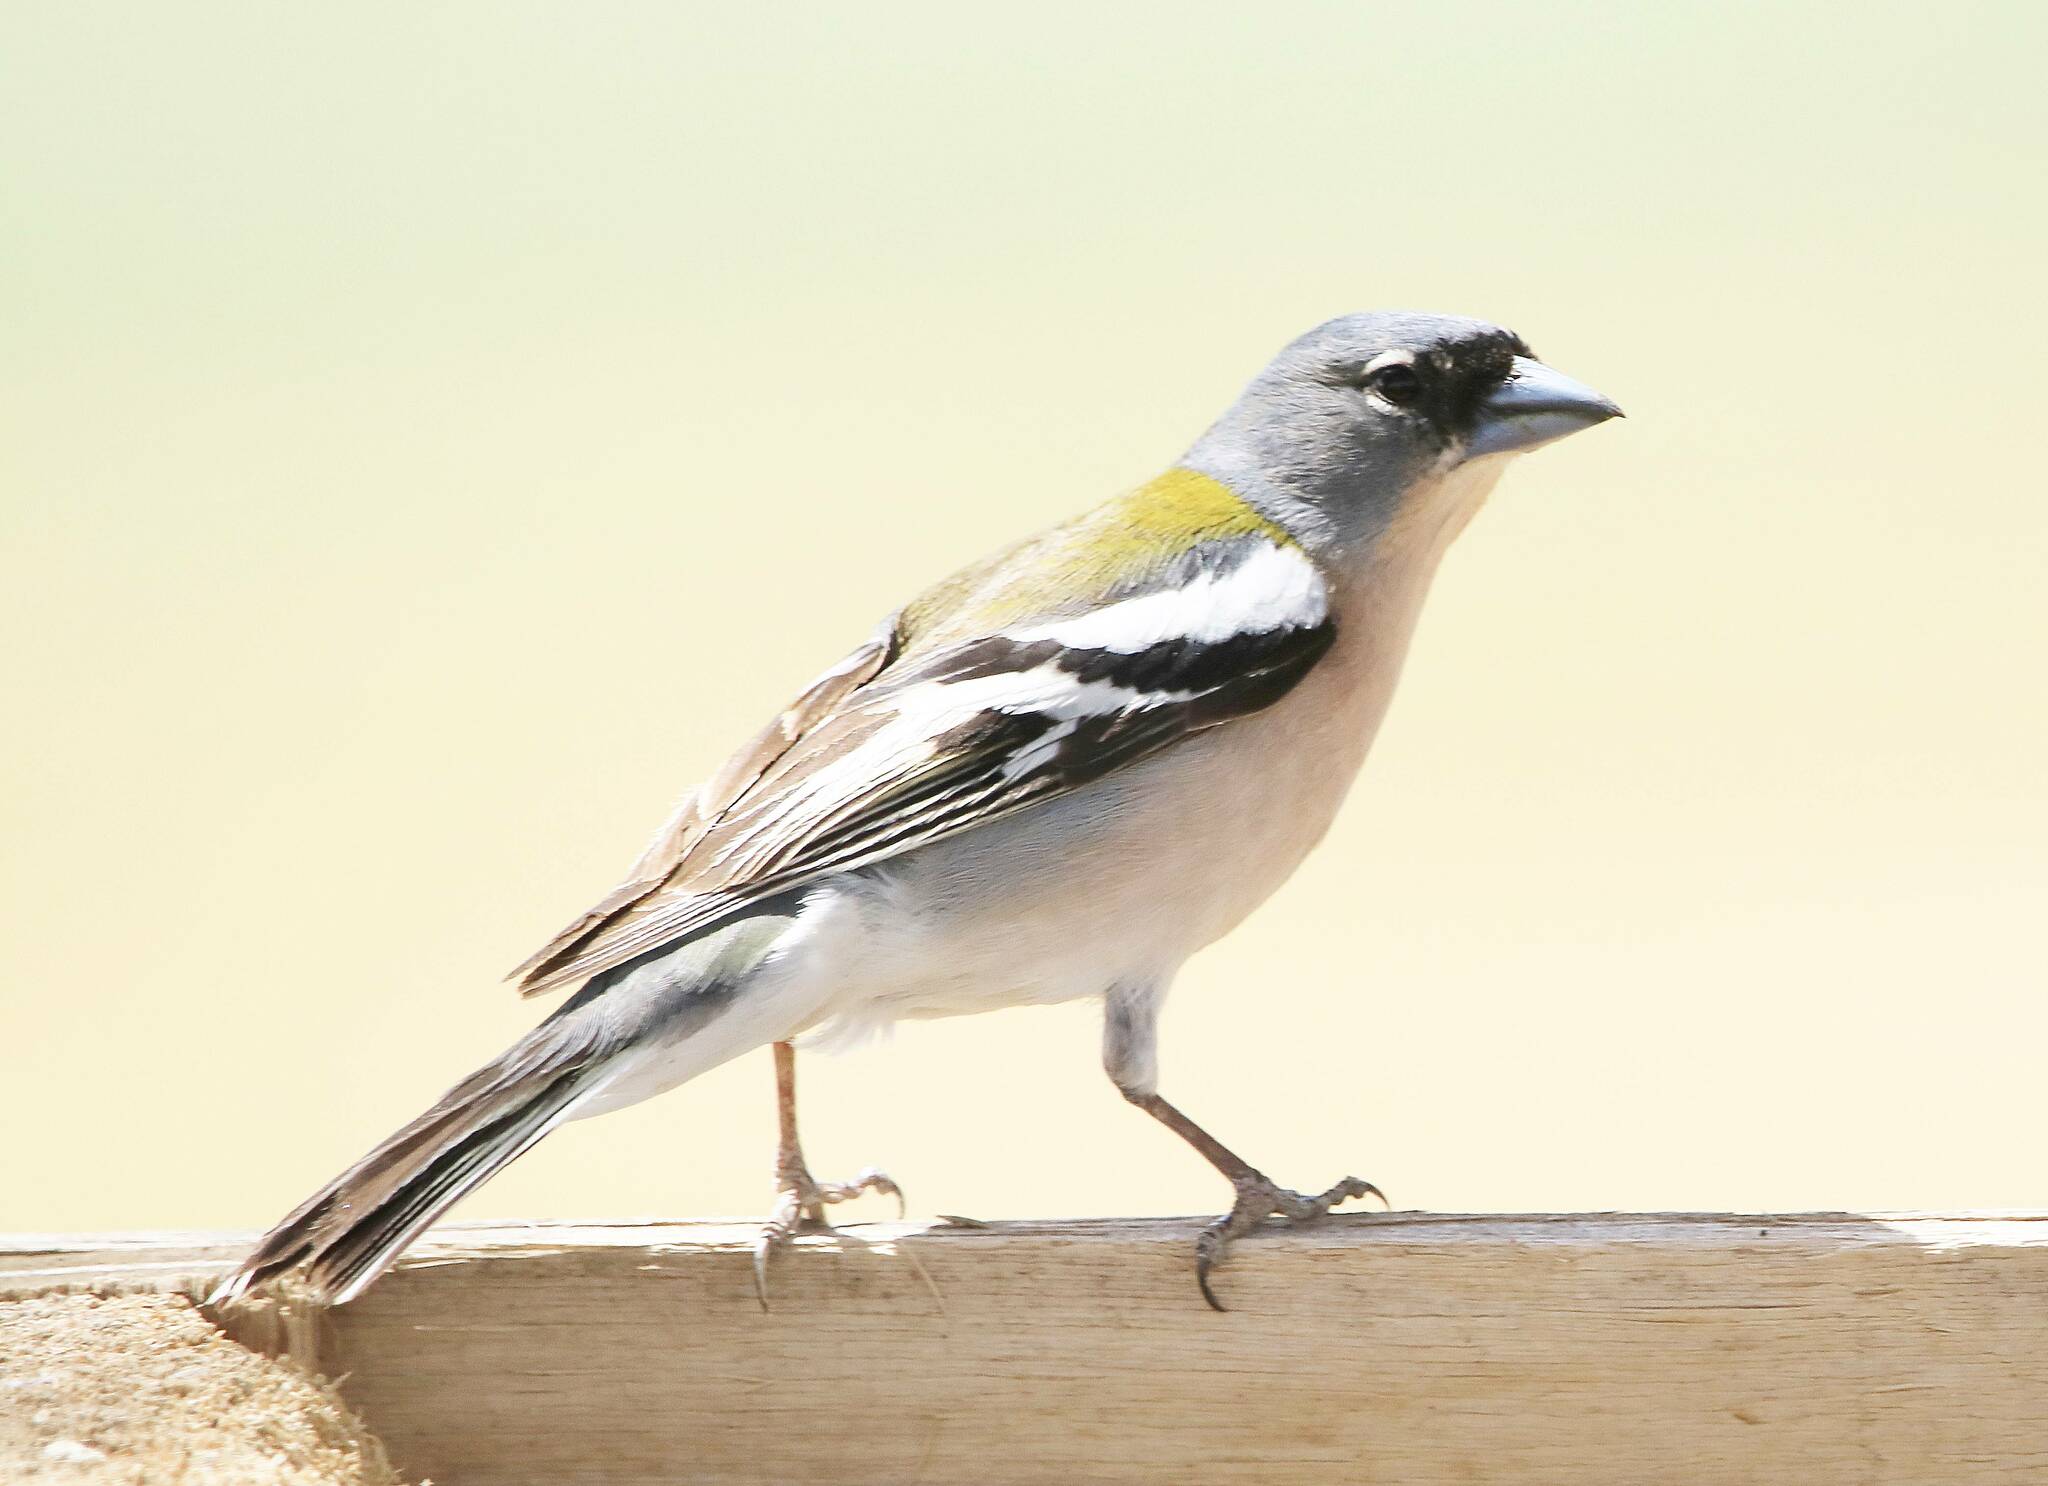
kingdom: Animalia
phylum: Chordata
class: Aves
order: Passeriformes
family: Fringillidae
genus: Fringilla
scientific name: Fringilla spodiogenys
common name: African chaffinch
